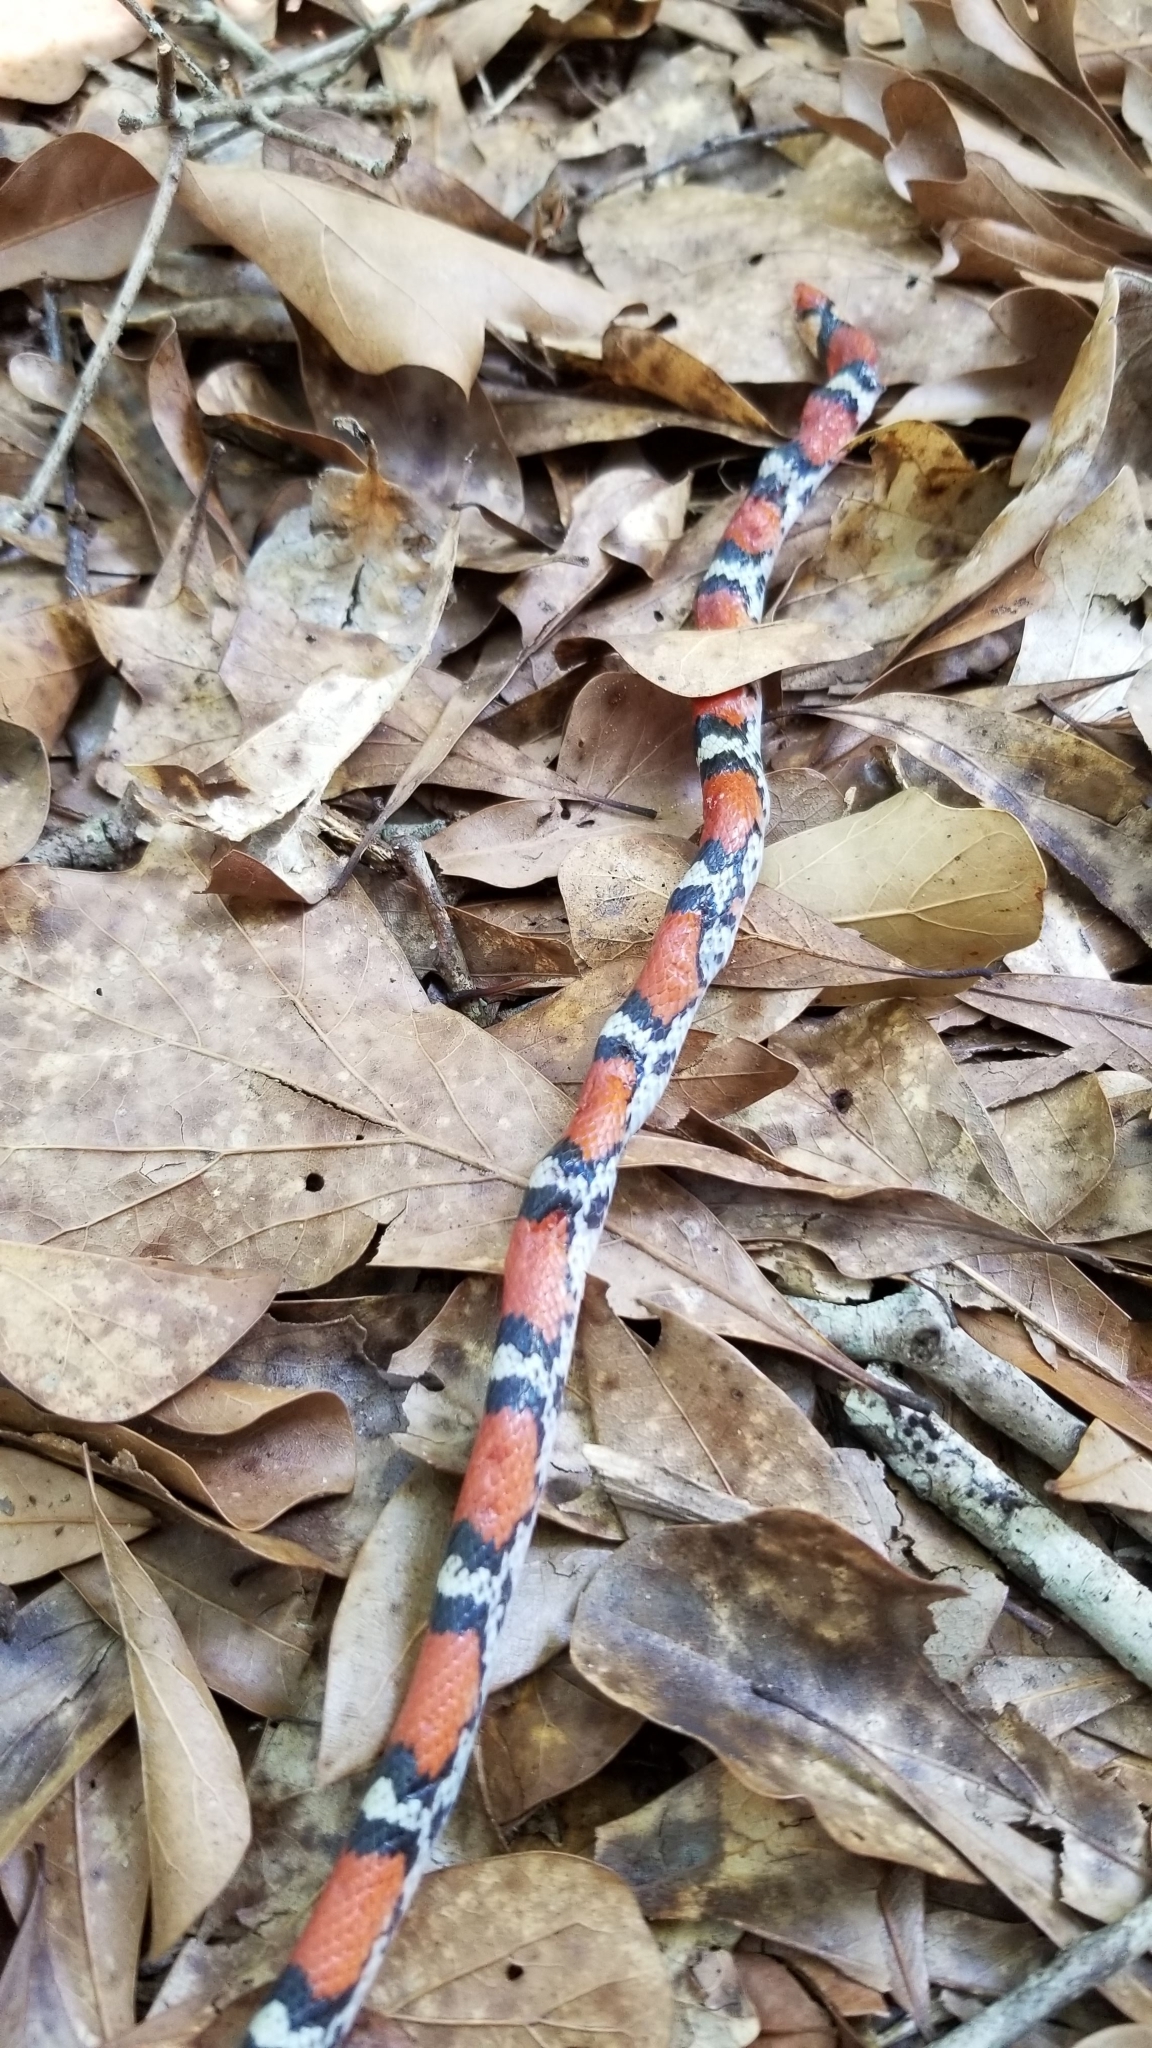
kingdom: Animalia
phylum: Chordata
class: Squamata
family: Colubridae
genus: Cemophora
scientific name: Cemophora coccinea
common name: Scarlet snake
